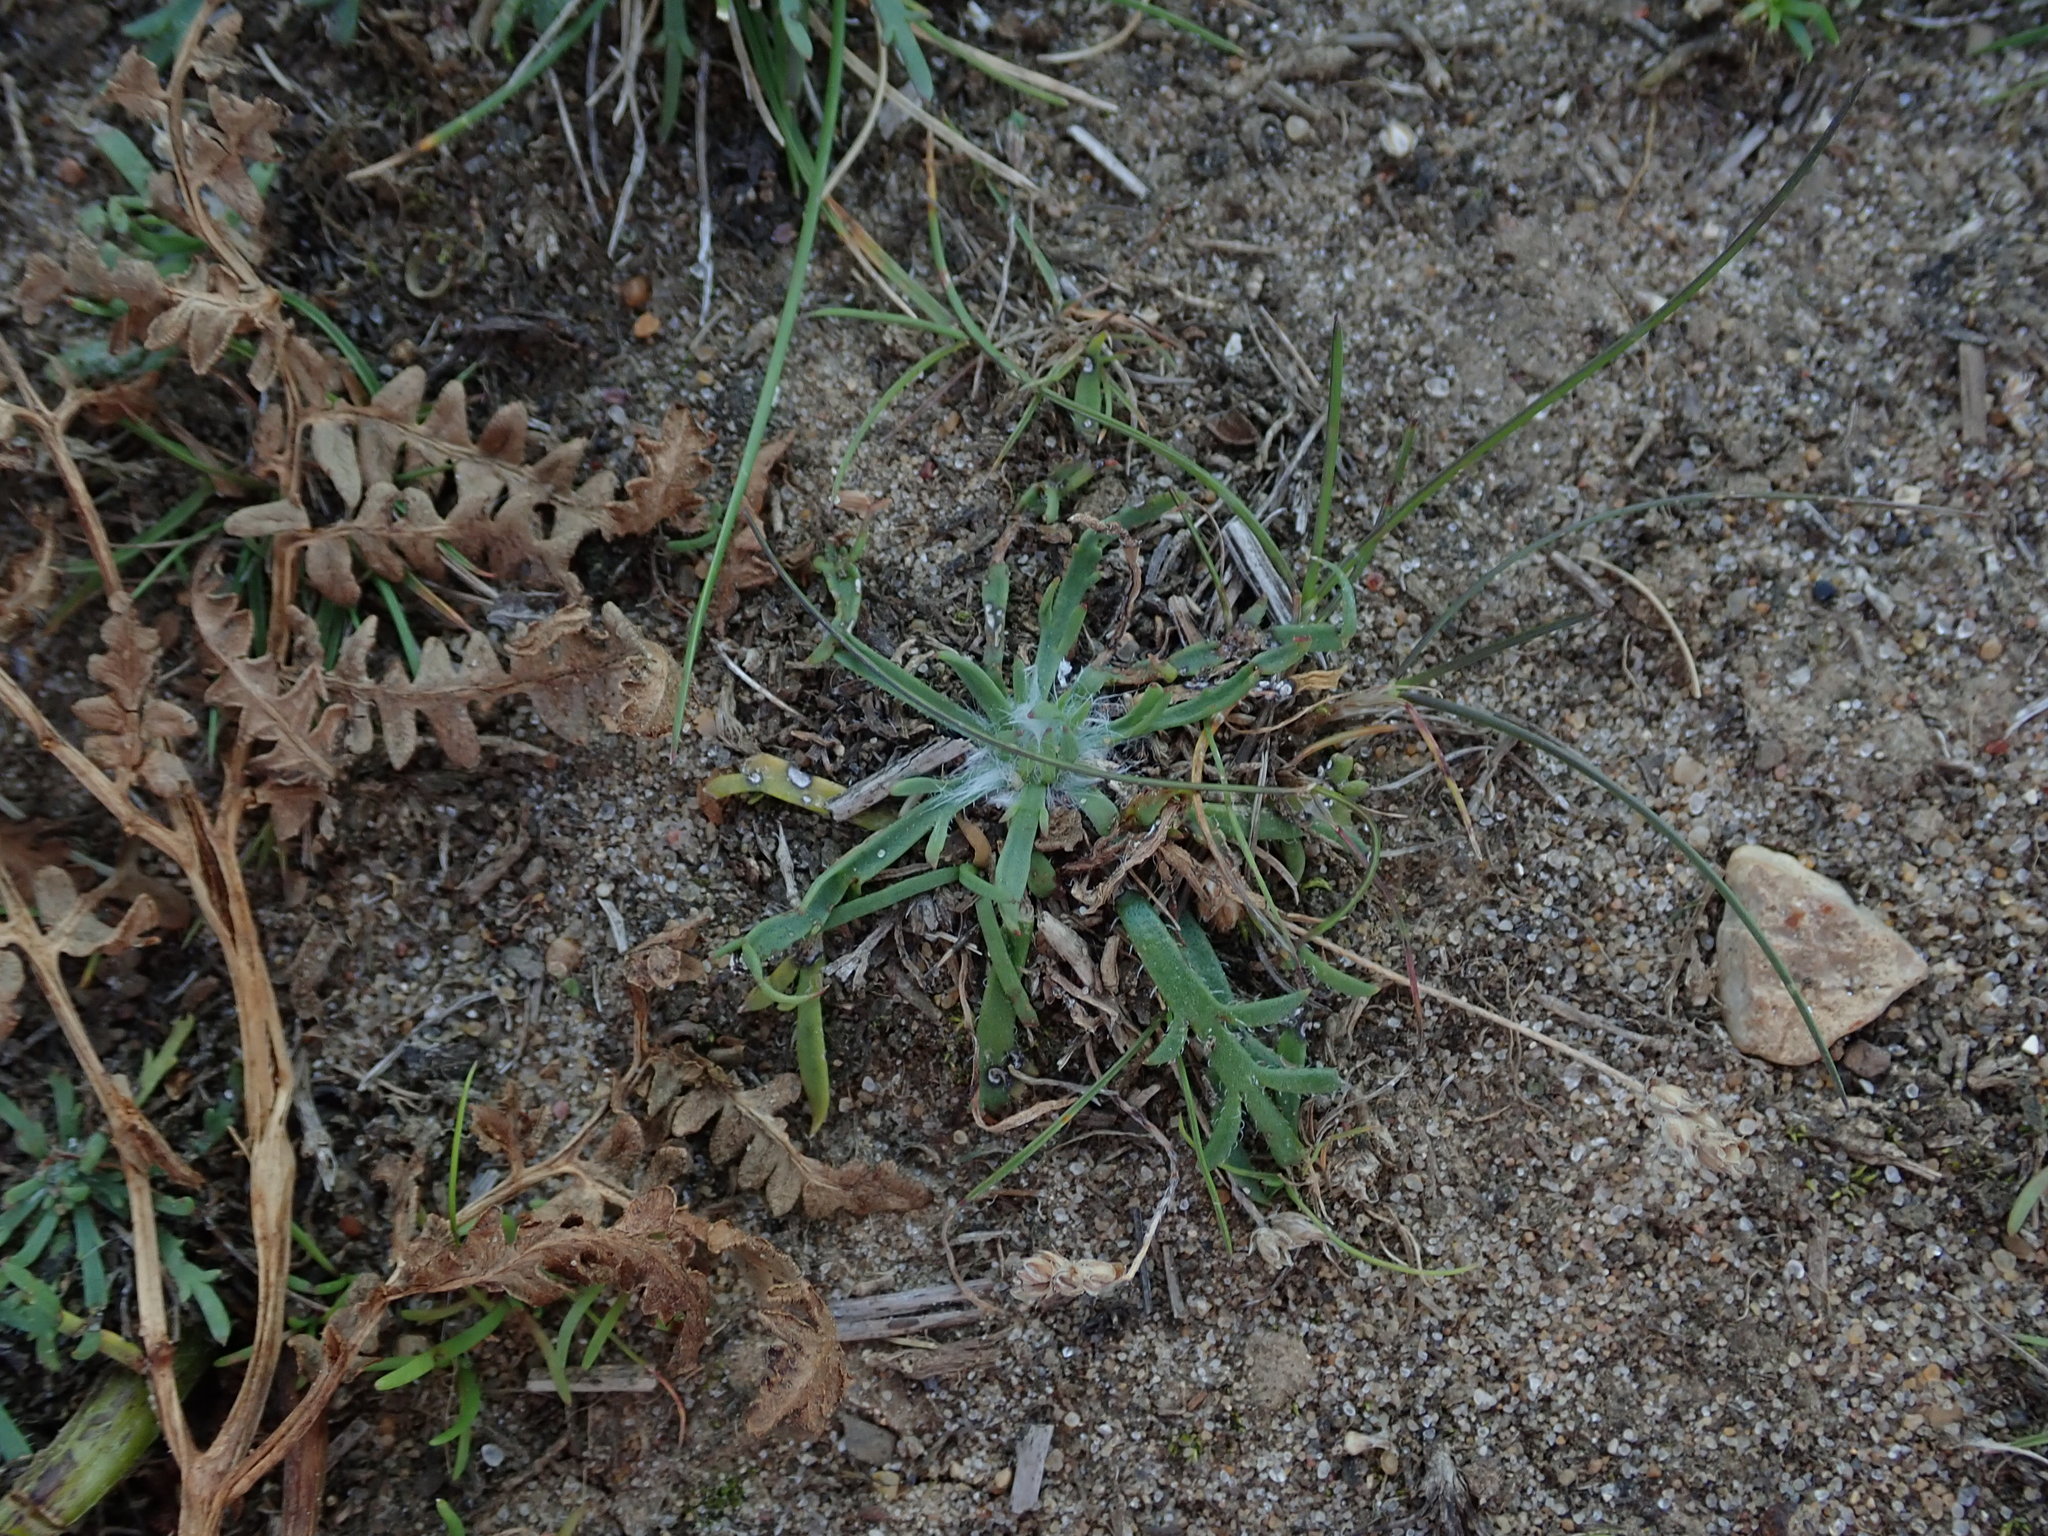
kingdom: Plantae
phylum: Tracheophyta
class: Magnoliopsida
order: Lamiales
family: Plantaginaceae
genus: Plantago
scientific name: Plantago coronopus
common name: Buck's-horn plantain
